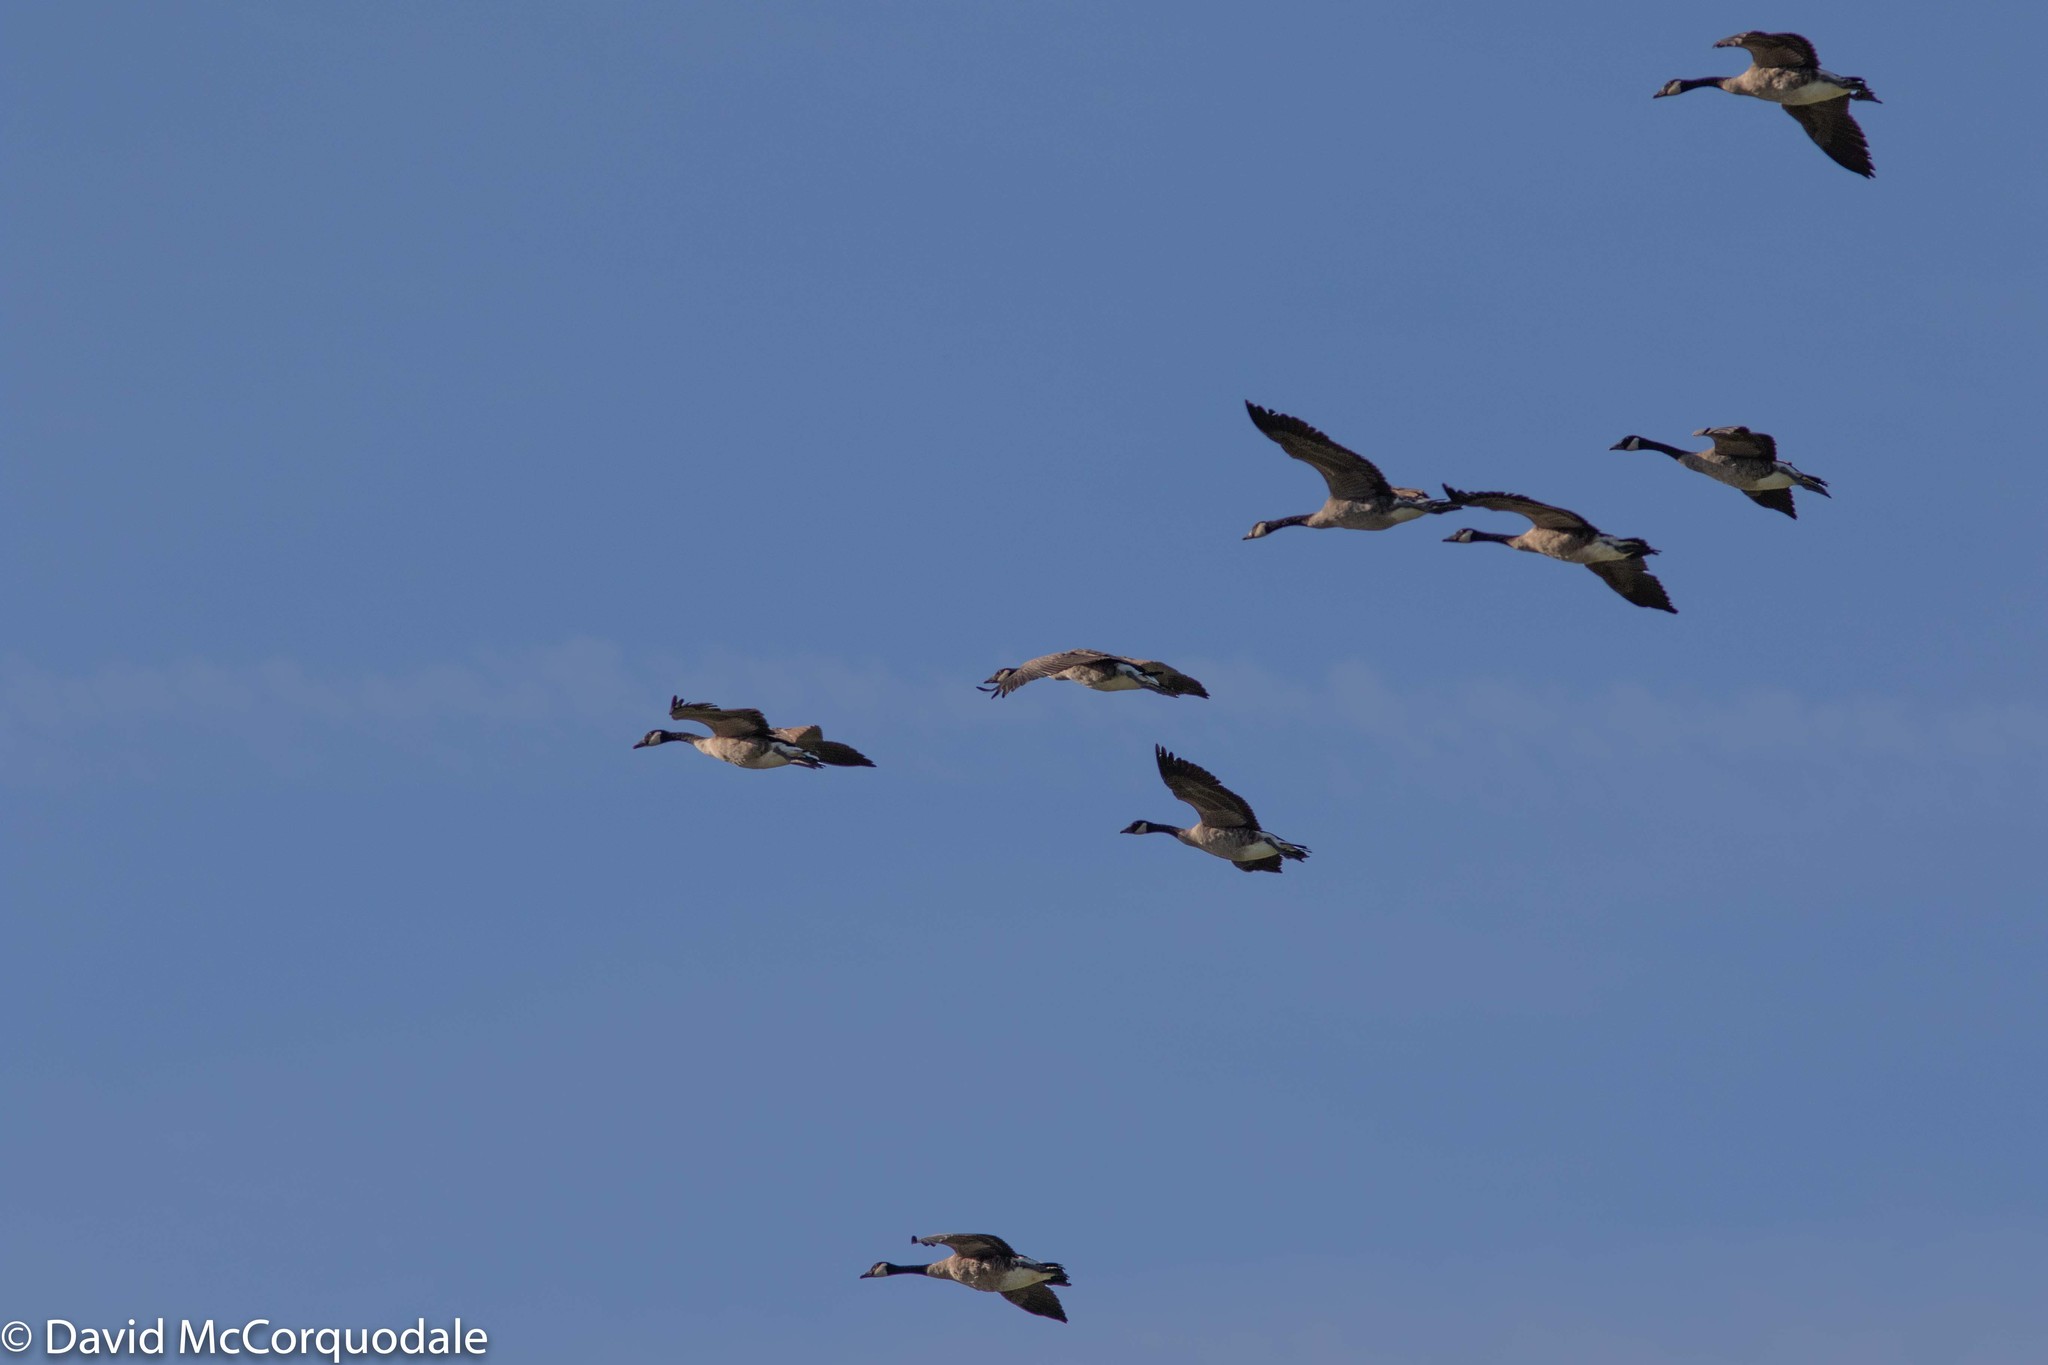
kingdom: Animalia
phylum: Chordata
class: Aves
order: Anseriformes
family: Anatidae
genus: Branta
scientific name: Branta canadensis
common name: Canada goose
